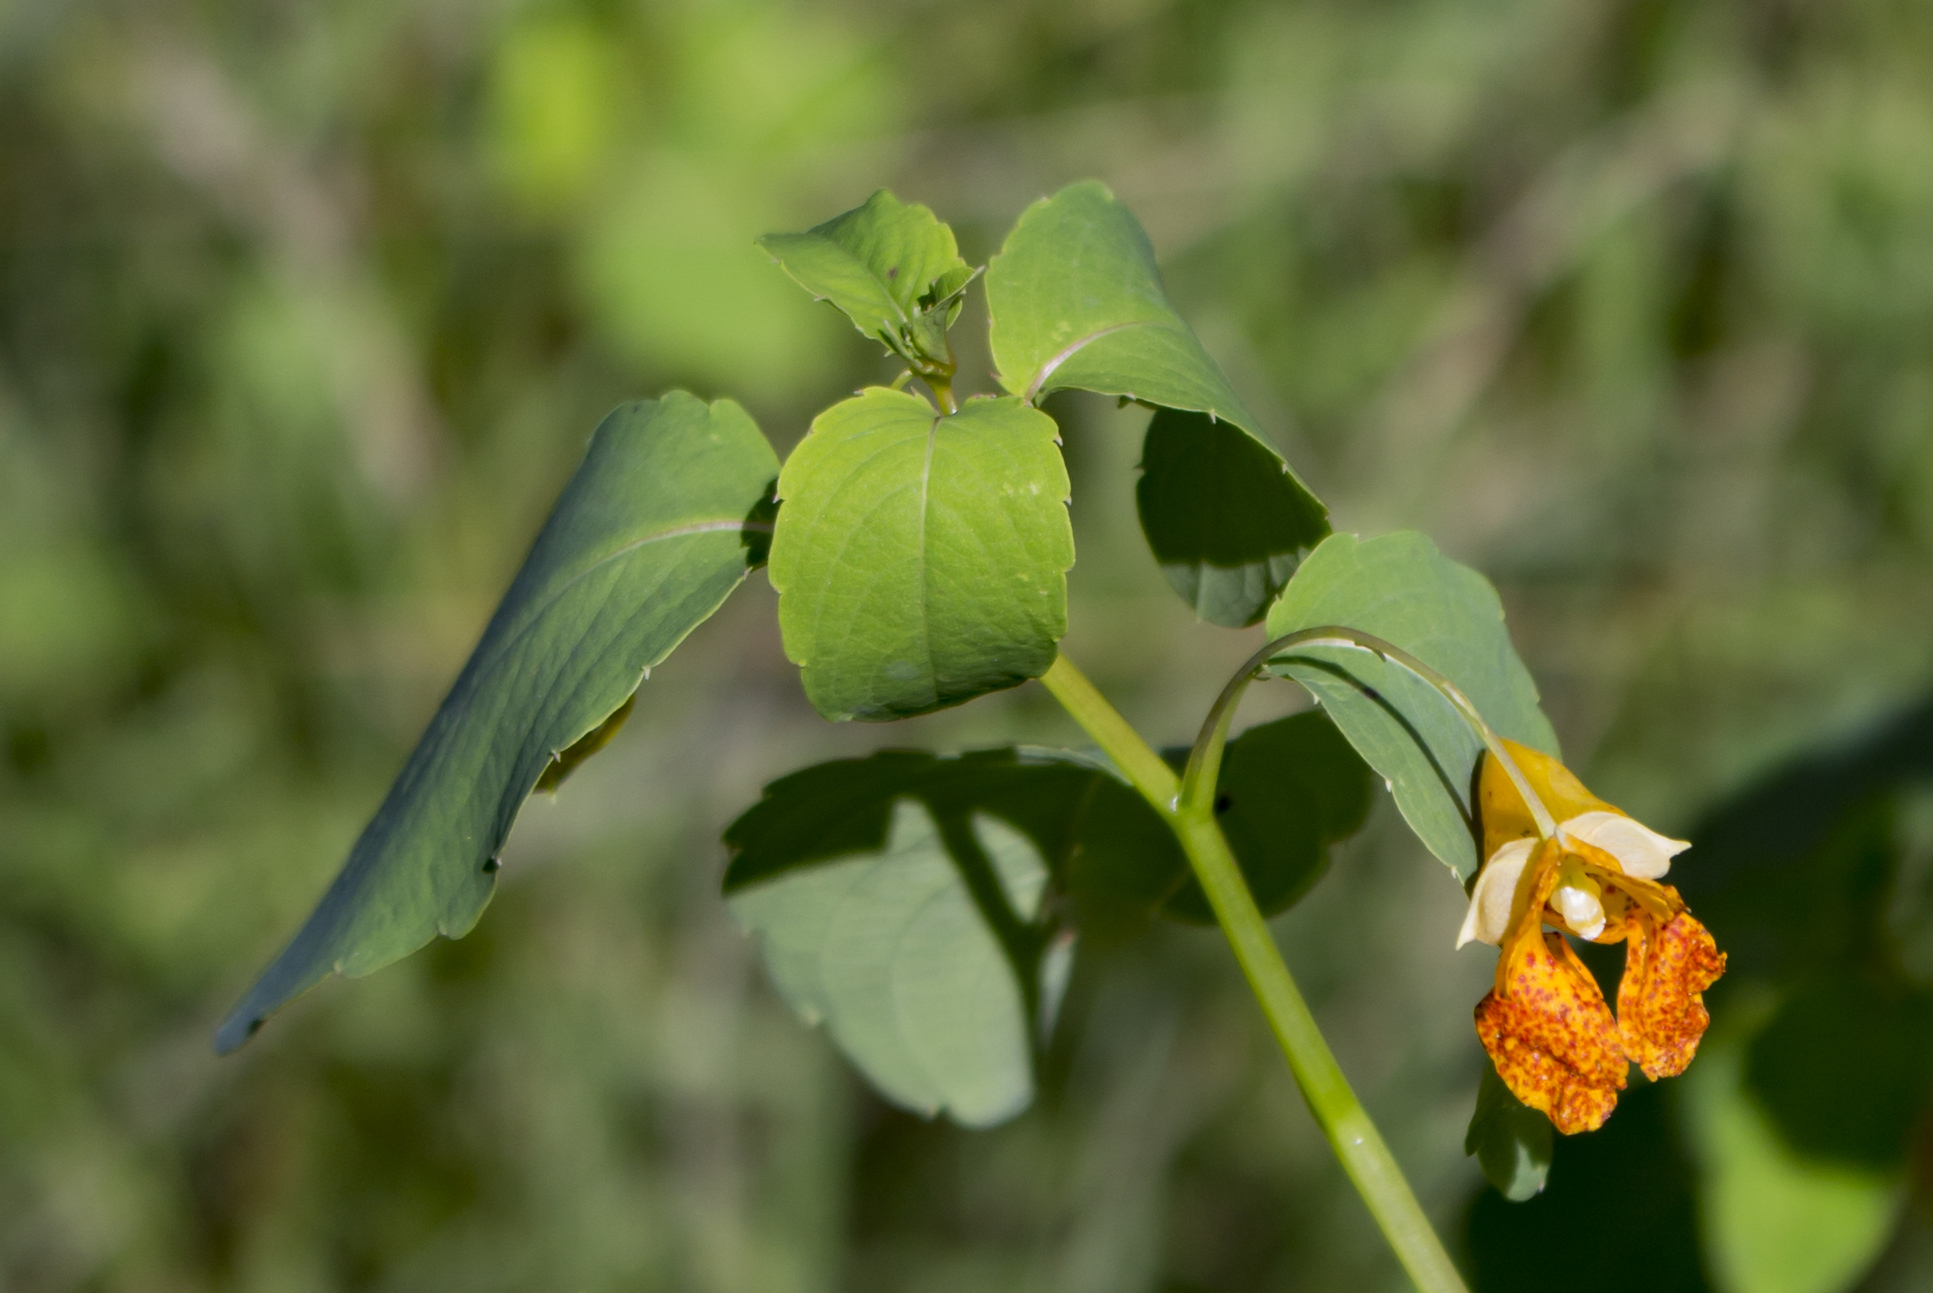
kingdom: Plantae
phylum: Tracheophyta
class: Magnoliopsida
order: Ericales
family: Balsaminaceae
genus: Impatiens
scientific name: Impatiens capensis
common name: Orange balsam
